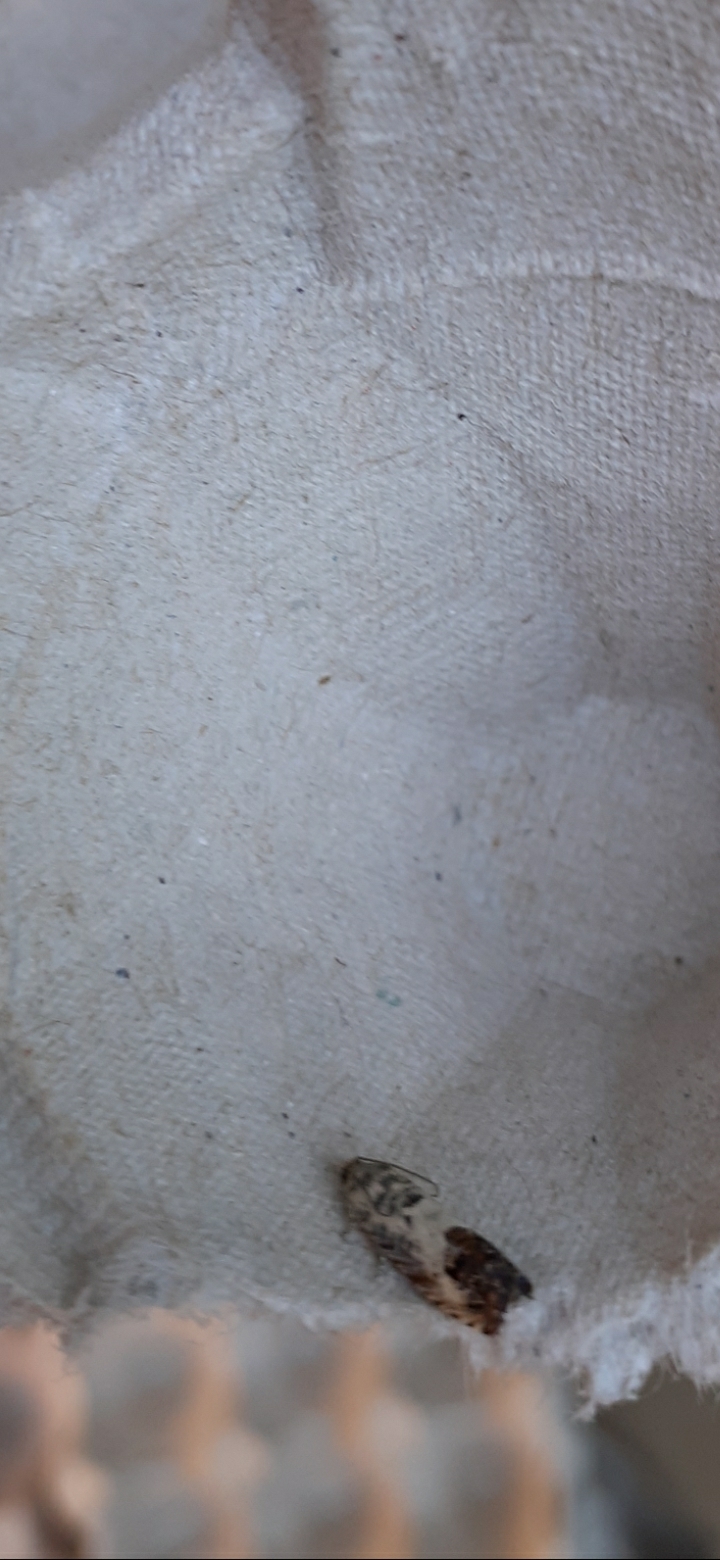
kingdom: Animalia
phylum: Arthropoda
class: Insecta
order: Lepidoptera
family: Tortricidae
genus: Pammene
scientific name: Pammene fasciana
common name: Acorn piercer
